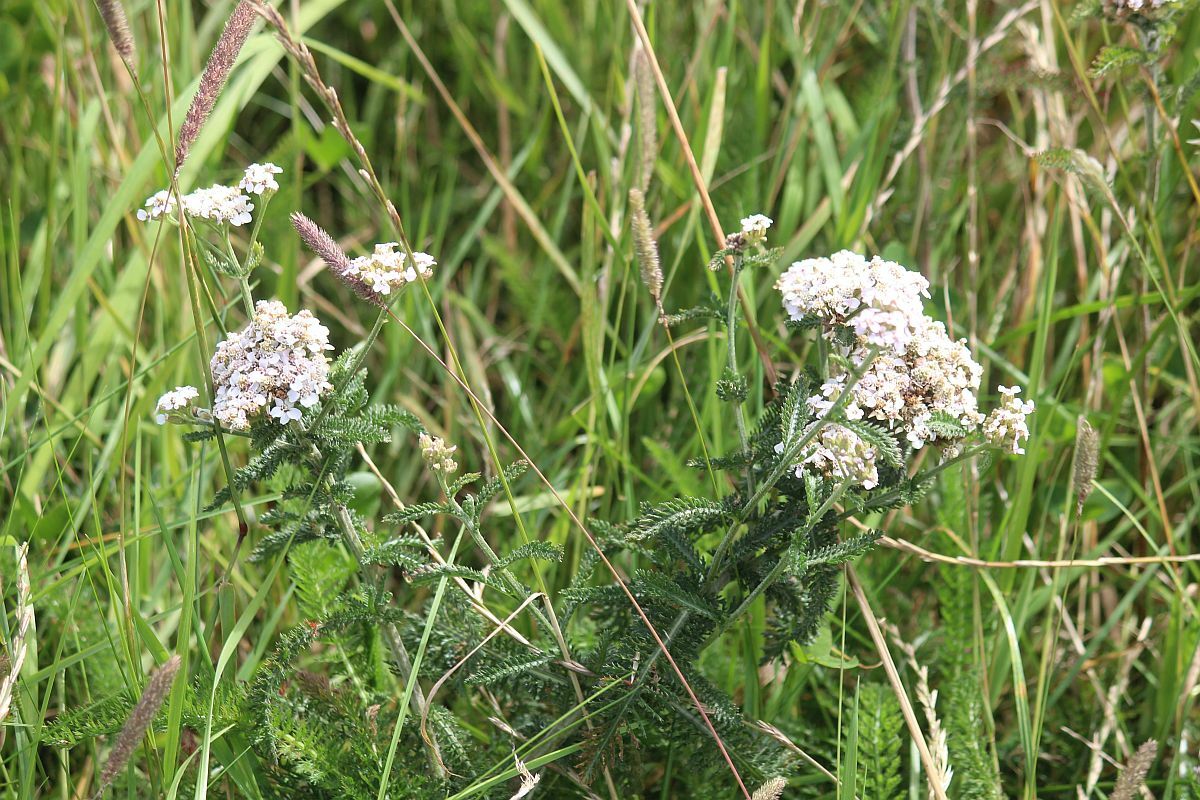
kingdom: Plantae
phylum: Tracheophyta
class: Magnoliopsida
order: Asterales
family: Asteraceae
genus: Achillea
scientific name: Achillea millefolium
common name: Yarrow
